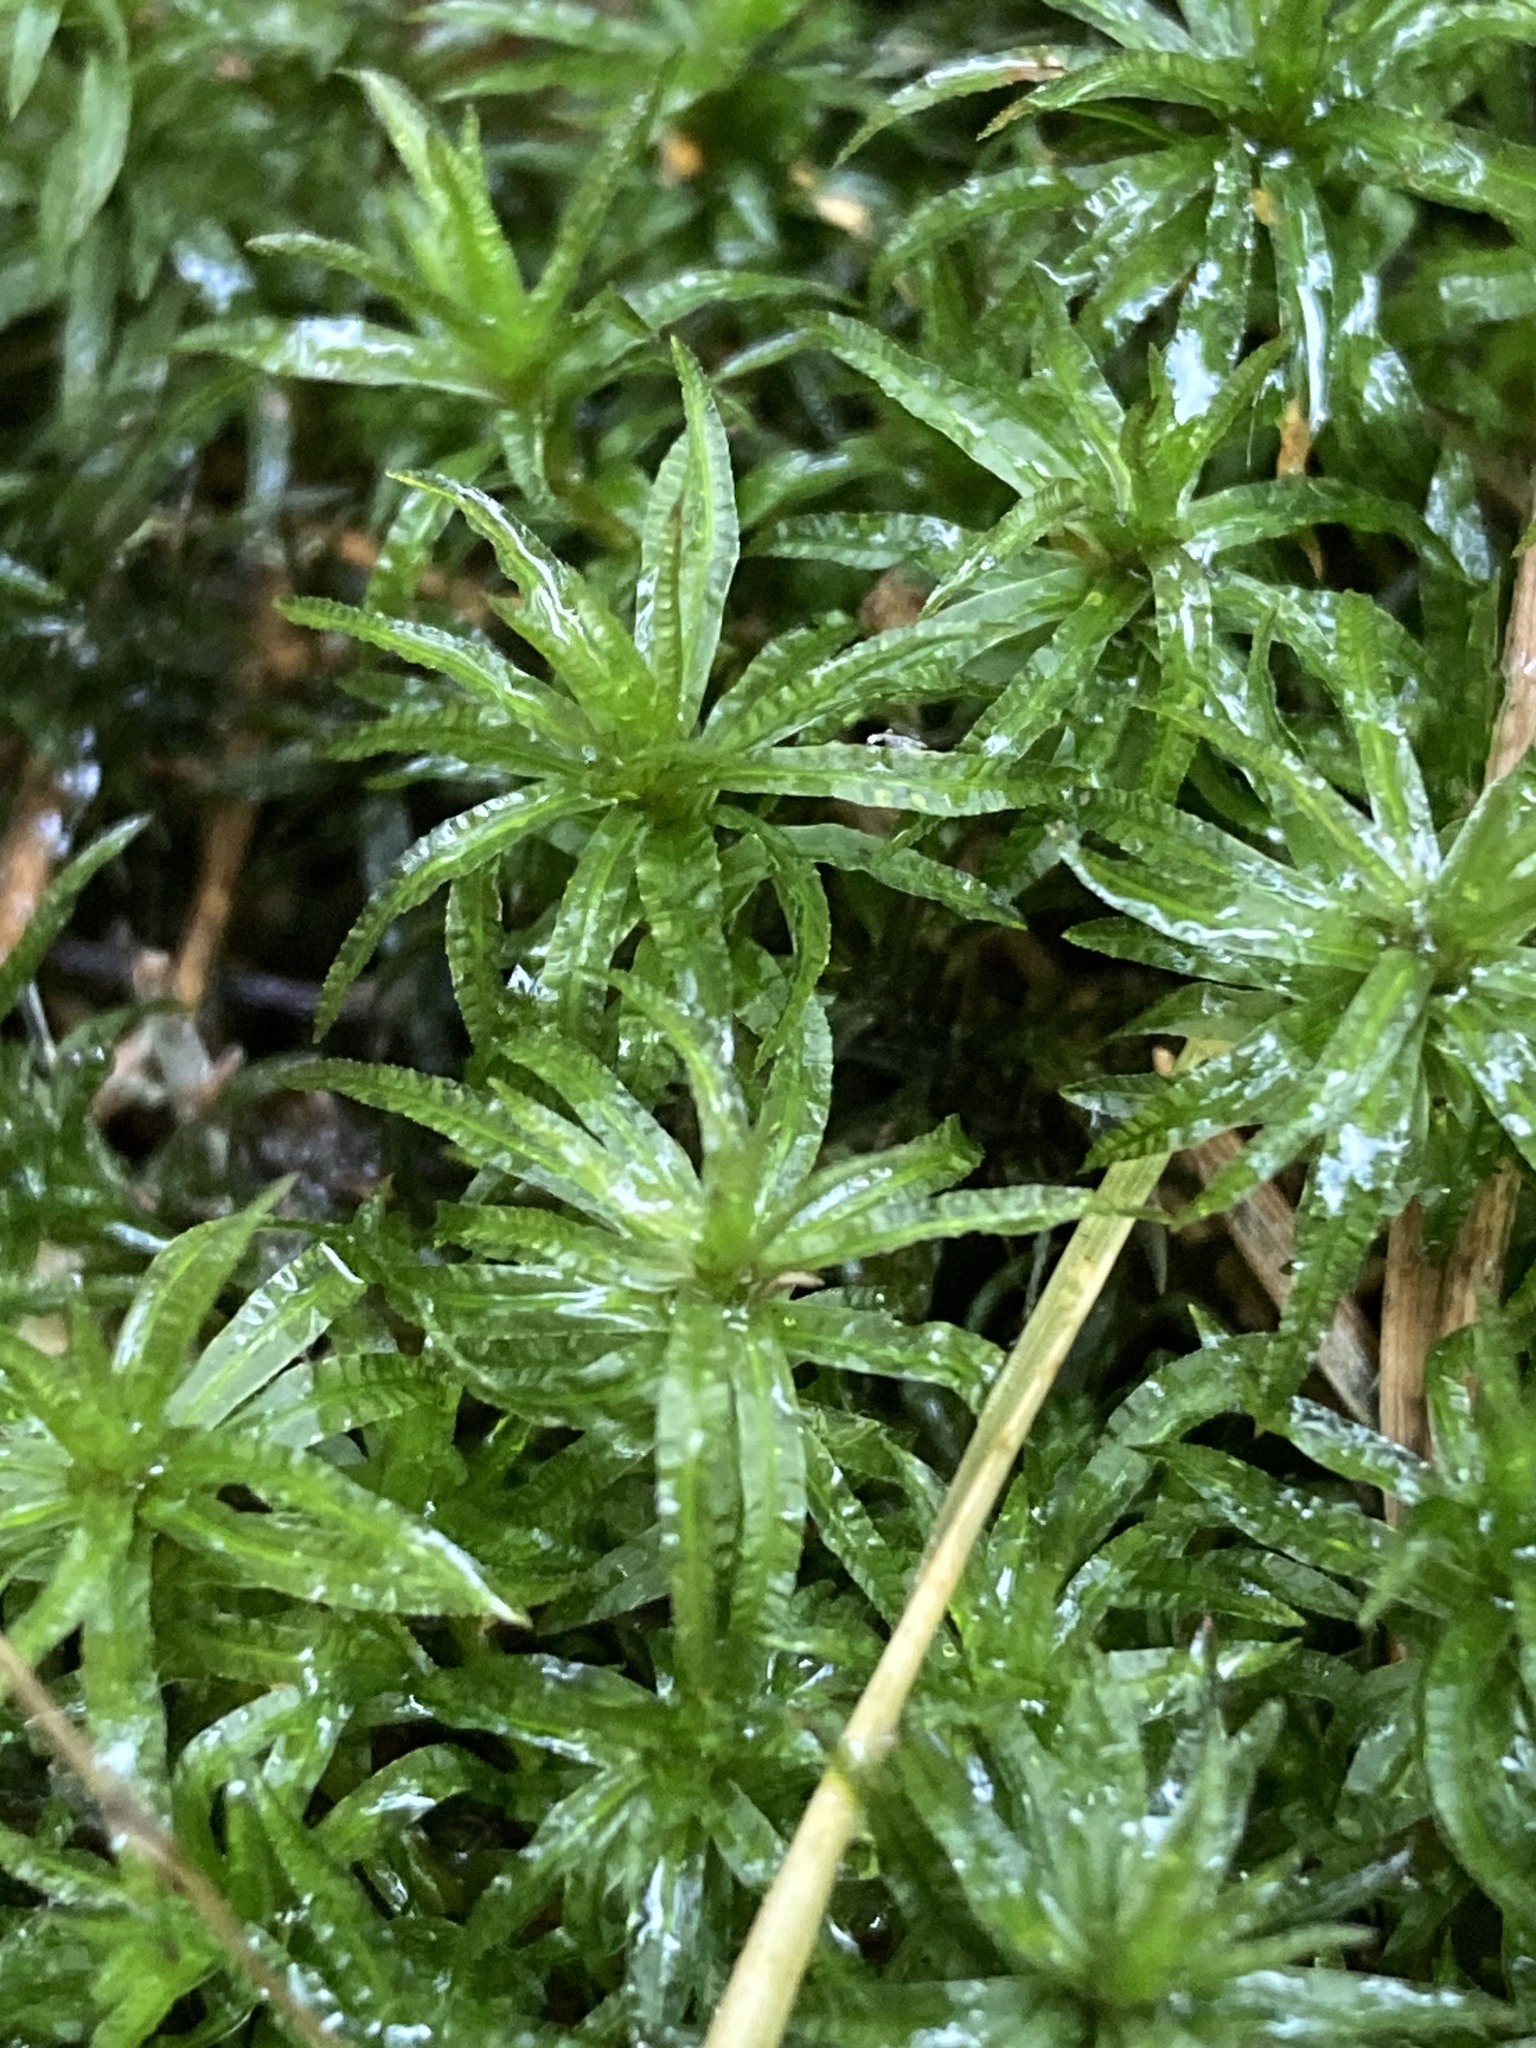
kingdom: Plantae
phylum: Bryophyta
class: Polytrichopsida
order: Polytrichales
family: Polytrichaceae
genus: Atrichum
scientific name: Atrichum undulatum
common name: Common smoothcap
